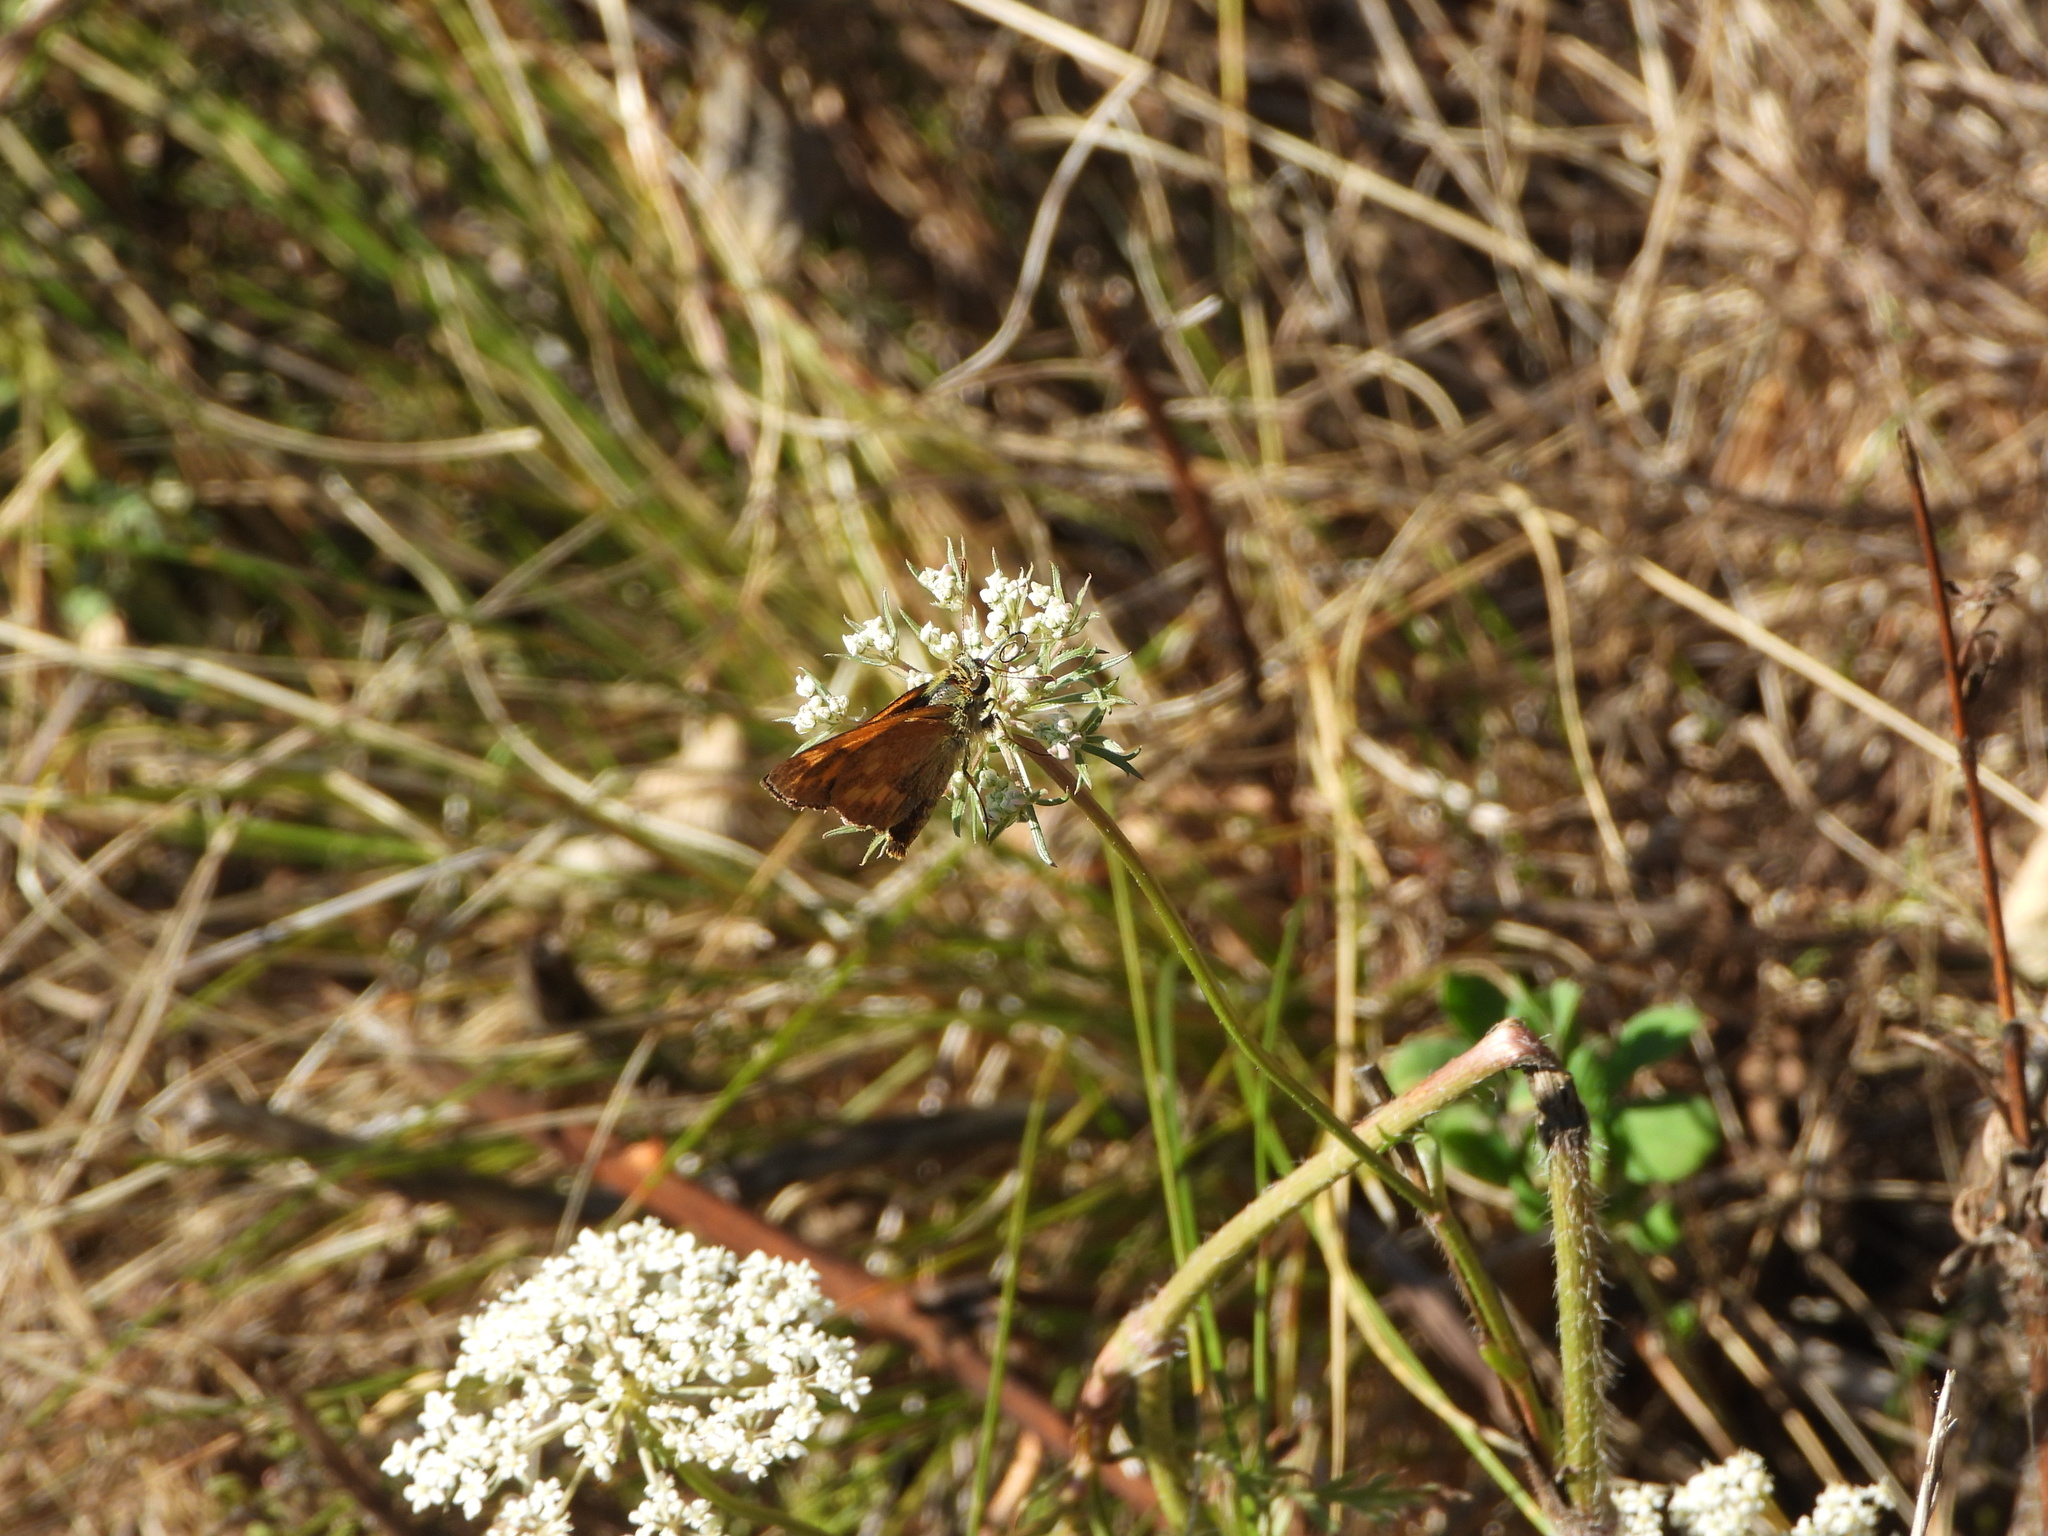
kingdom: Animalia
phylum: Arthropoda
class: Insecta
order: Lepidoptera
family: Hesperiidae
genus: Ochlodes
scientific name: Ochlodes sylvanoides
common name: Woodland skipper
